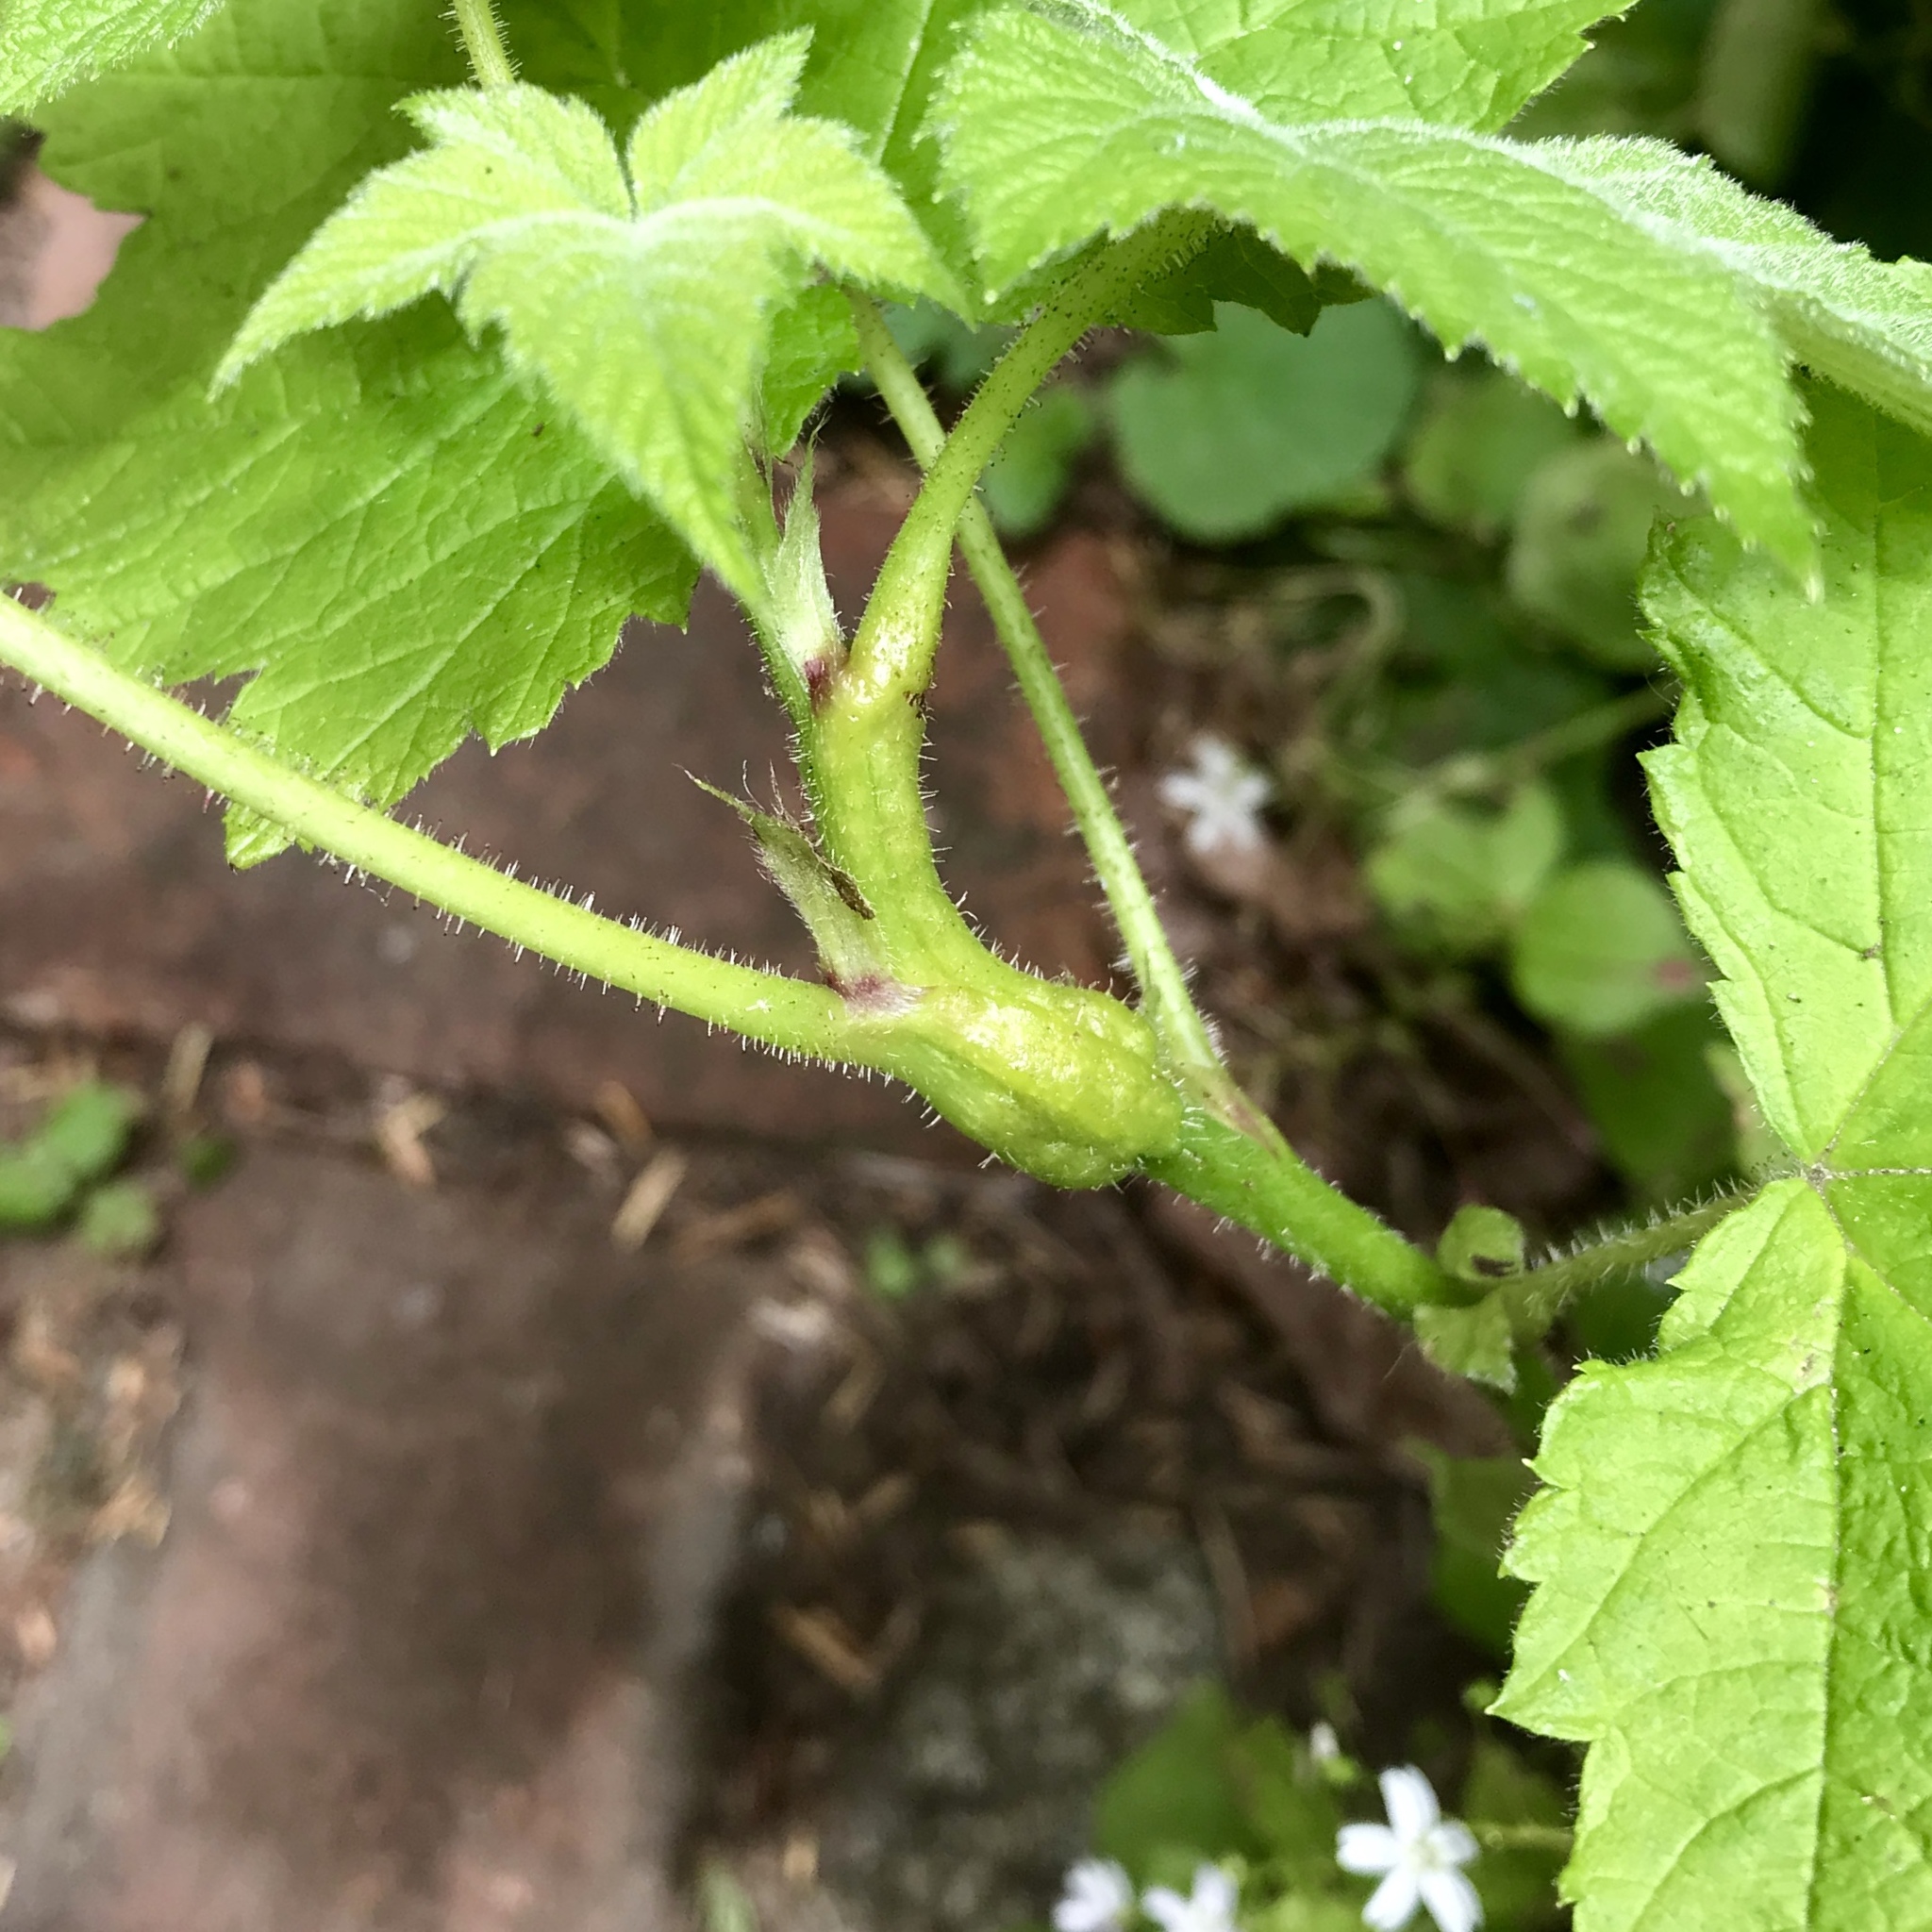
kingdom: Animalia
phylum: Arthropoda
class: Insecta
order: Hymenoptera
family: Cynipidae
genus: Diastrophus
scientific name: Diastrophus
